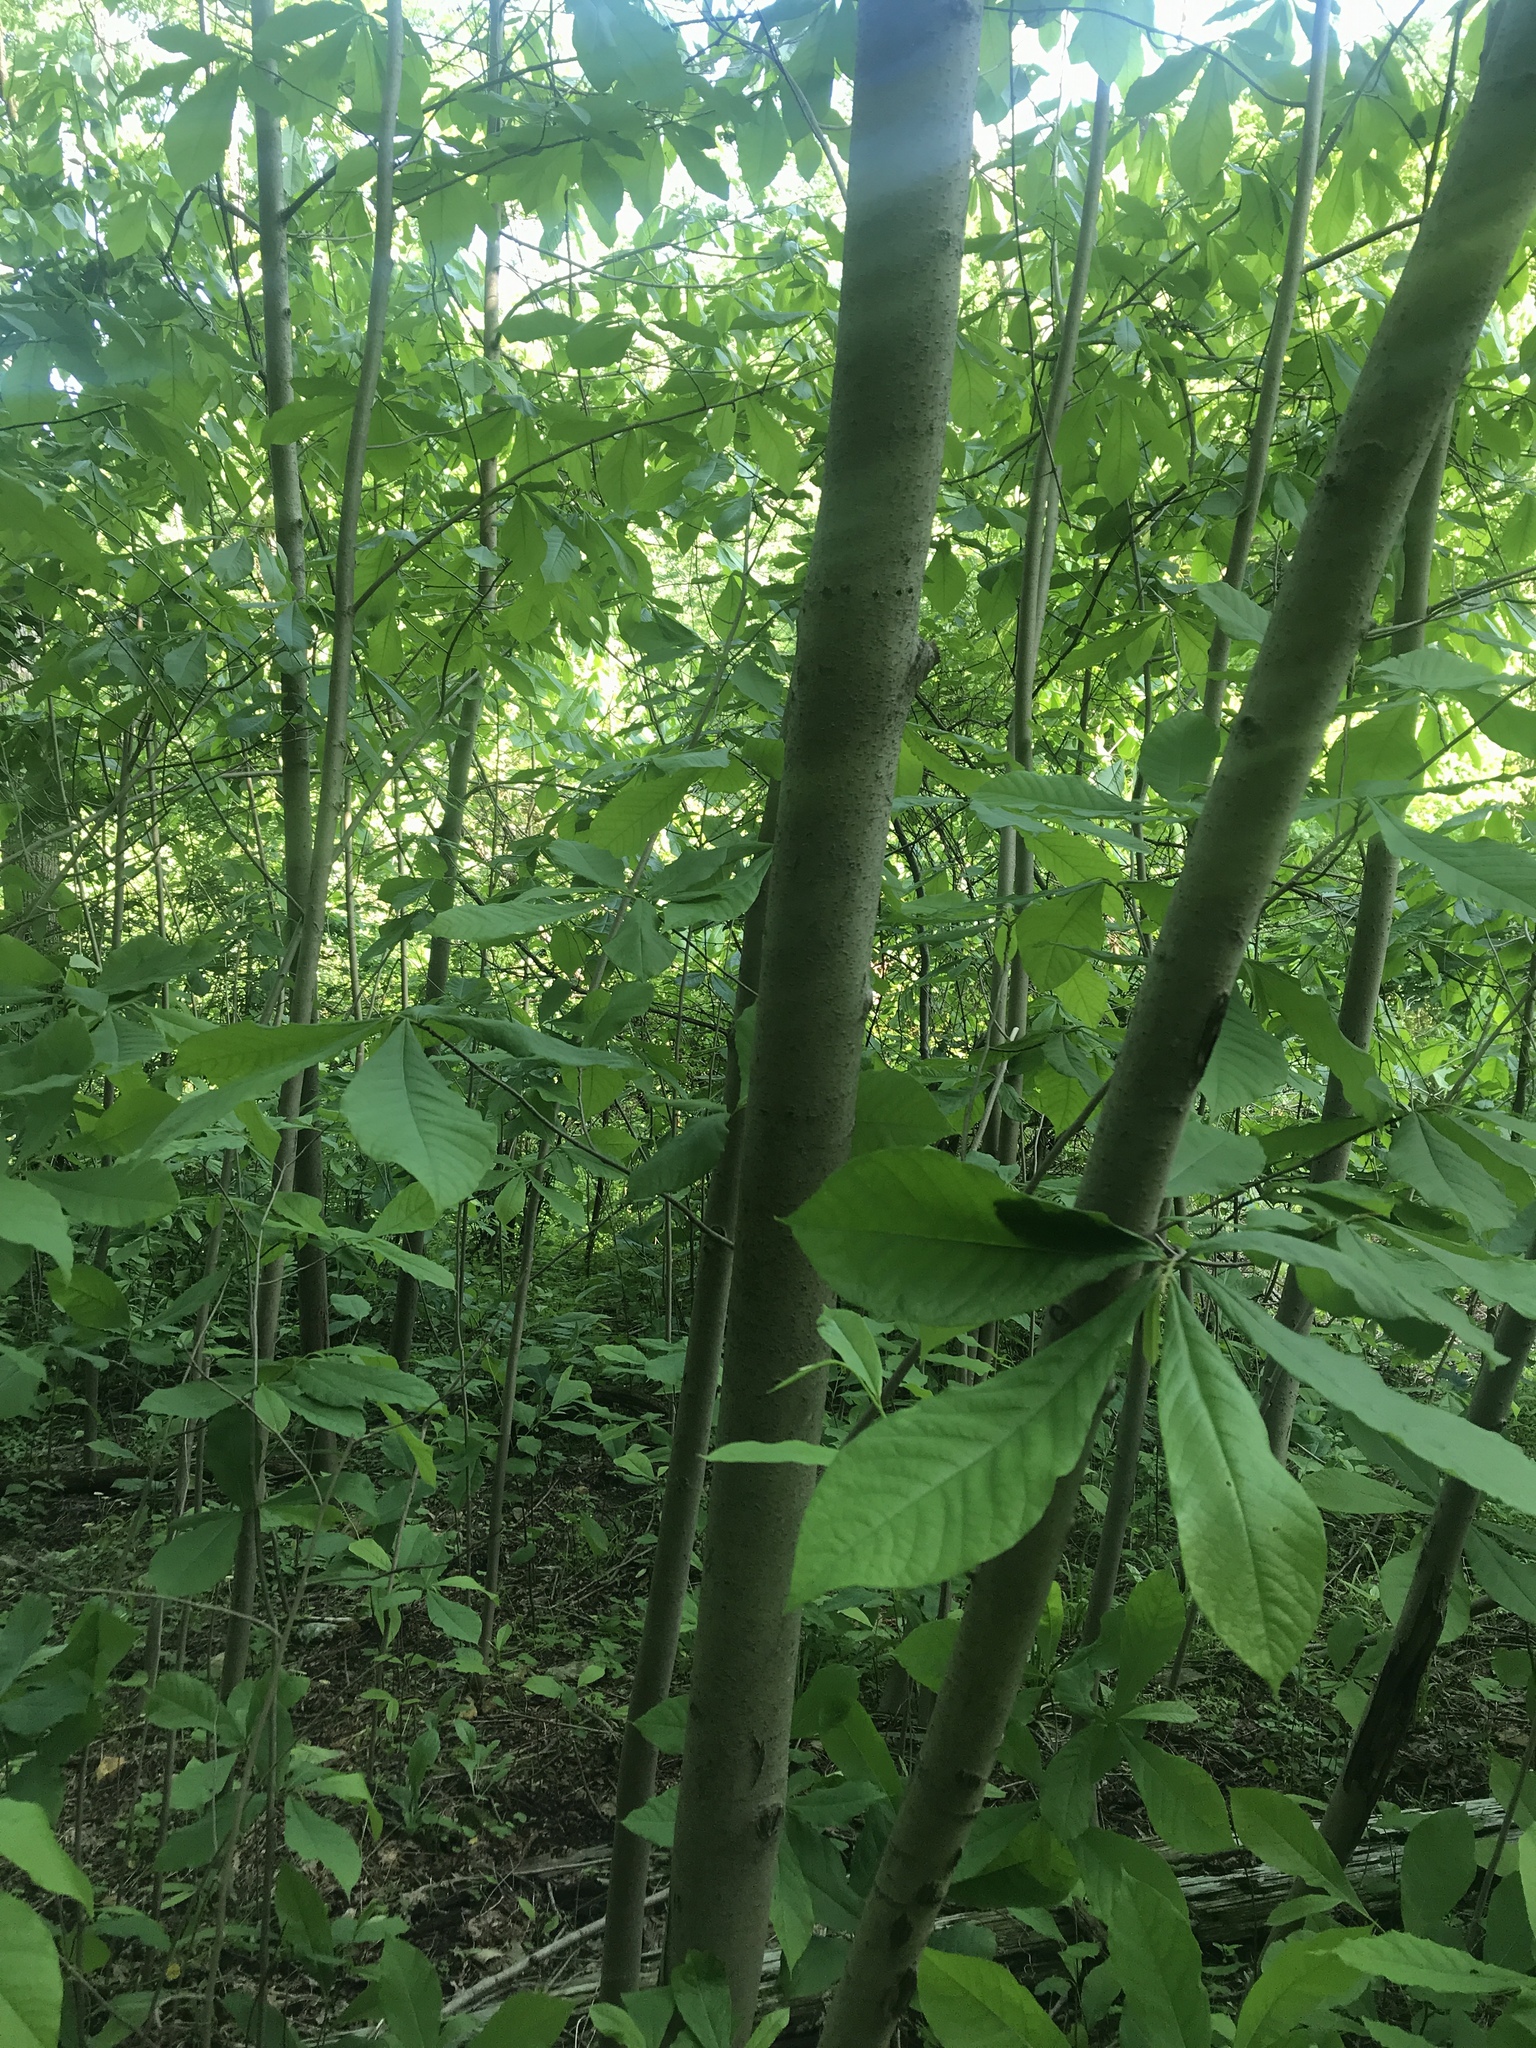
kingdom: Plantae
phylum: Tracheophyta
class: Magnoliopsida
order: Magnoliales
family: Annonaceae
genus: Asimina
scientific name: Asimina triloba
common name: Dog-banana
